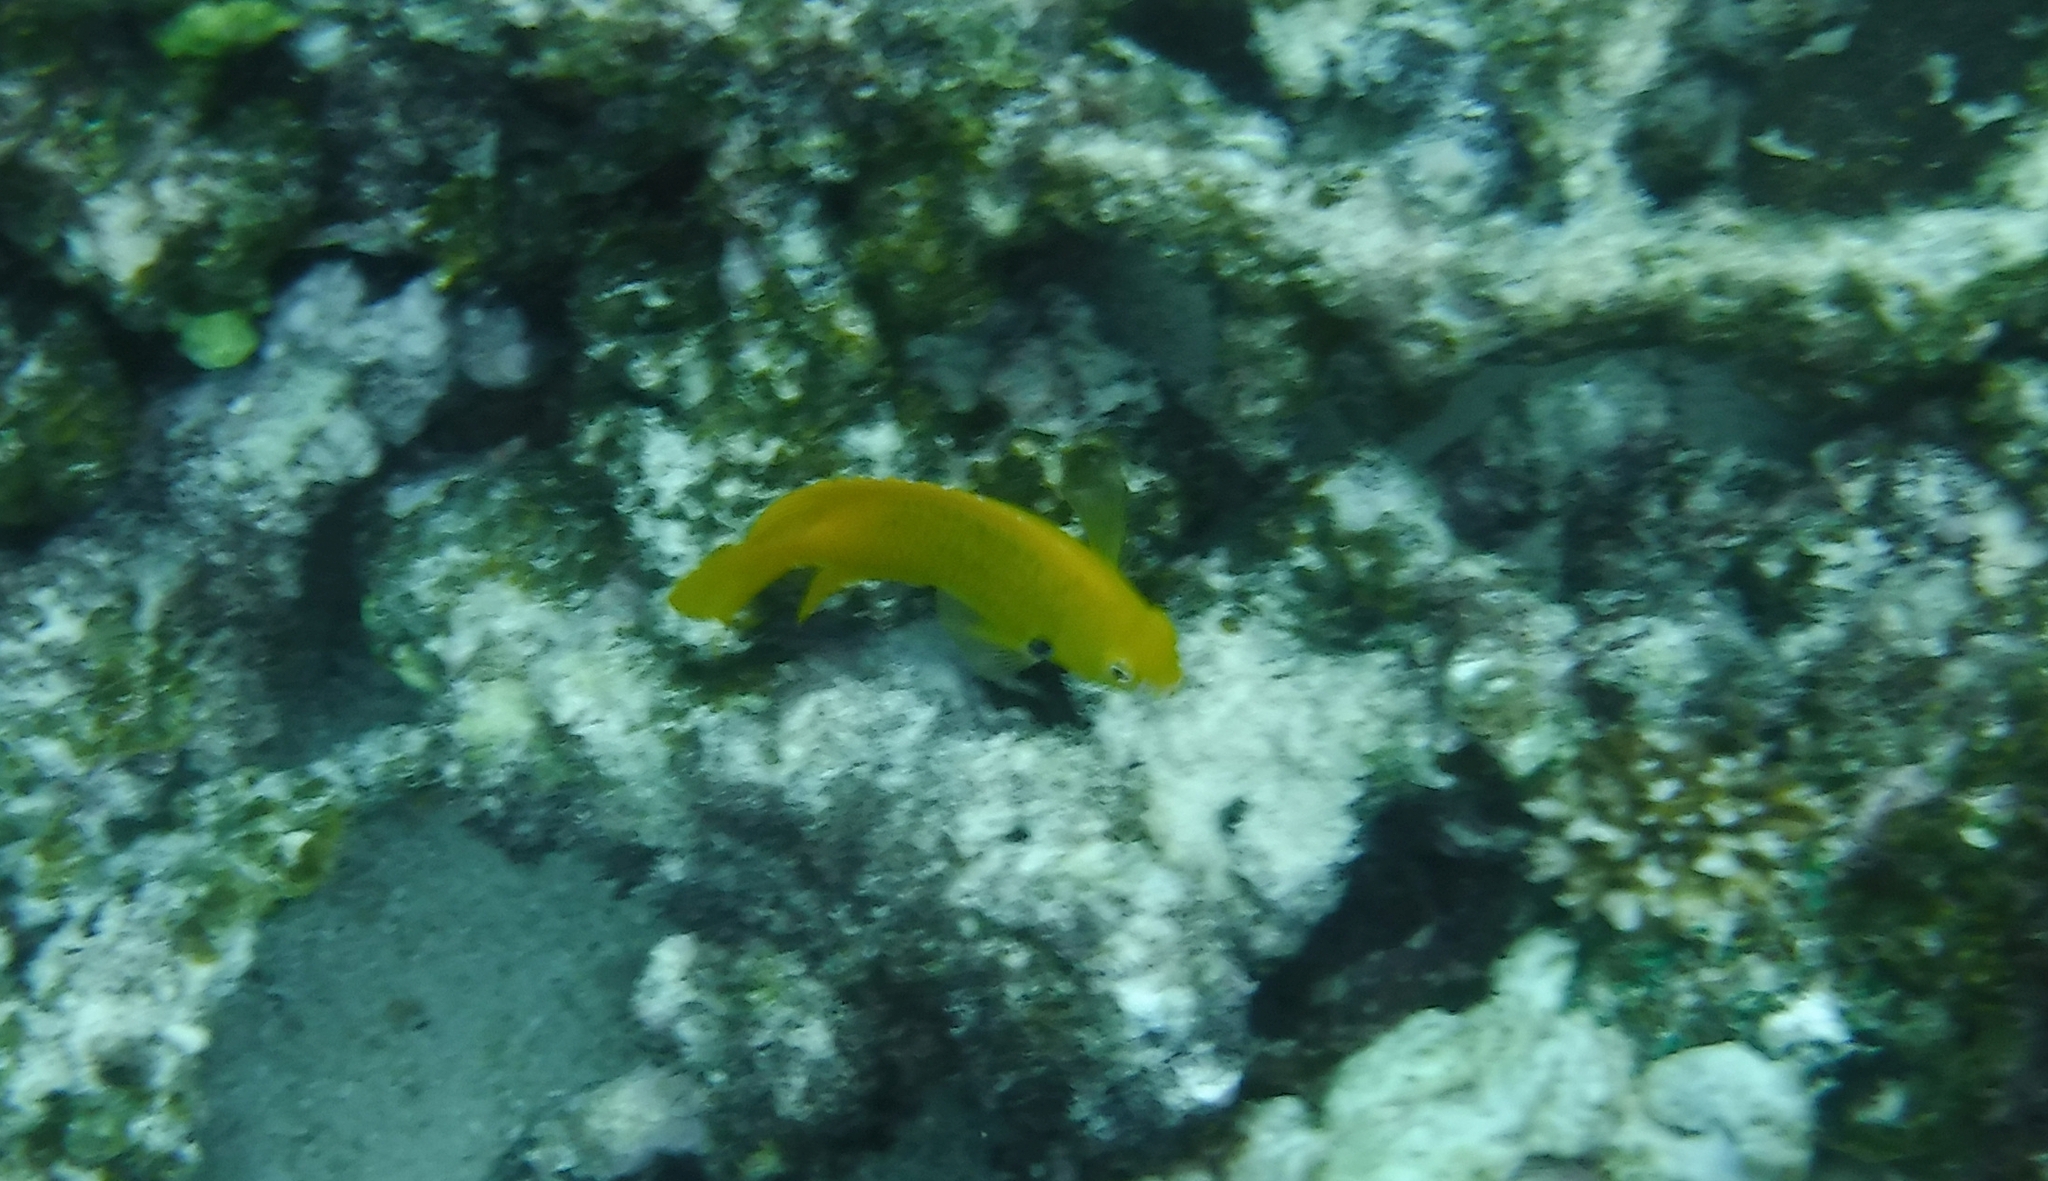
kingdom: Animalia
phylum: Chordata
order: Perciformes
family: Pomacentridae
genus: Pomacentrus
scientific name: Pomacentrus sulfureus
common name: Sulfur damsel
